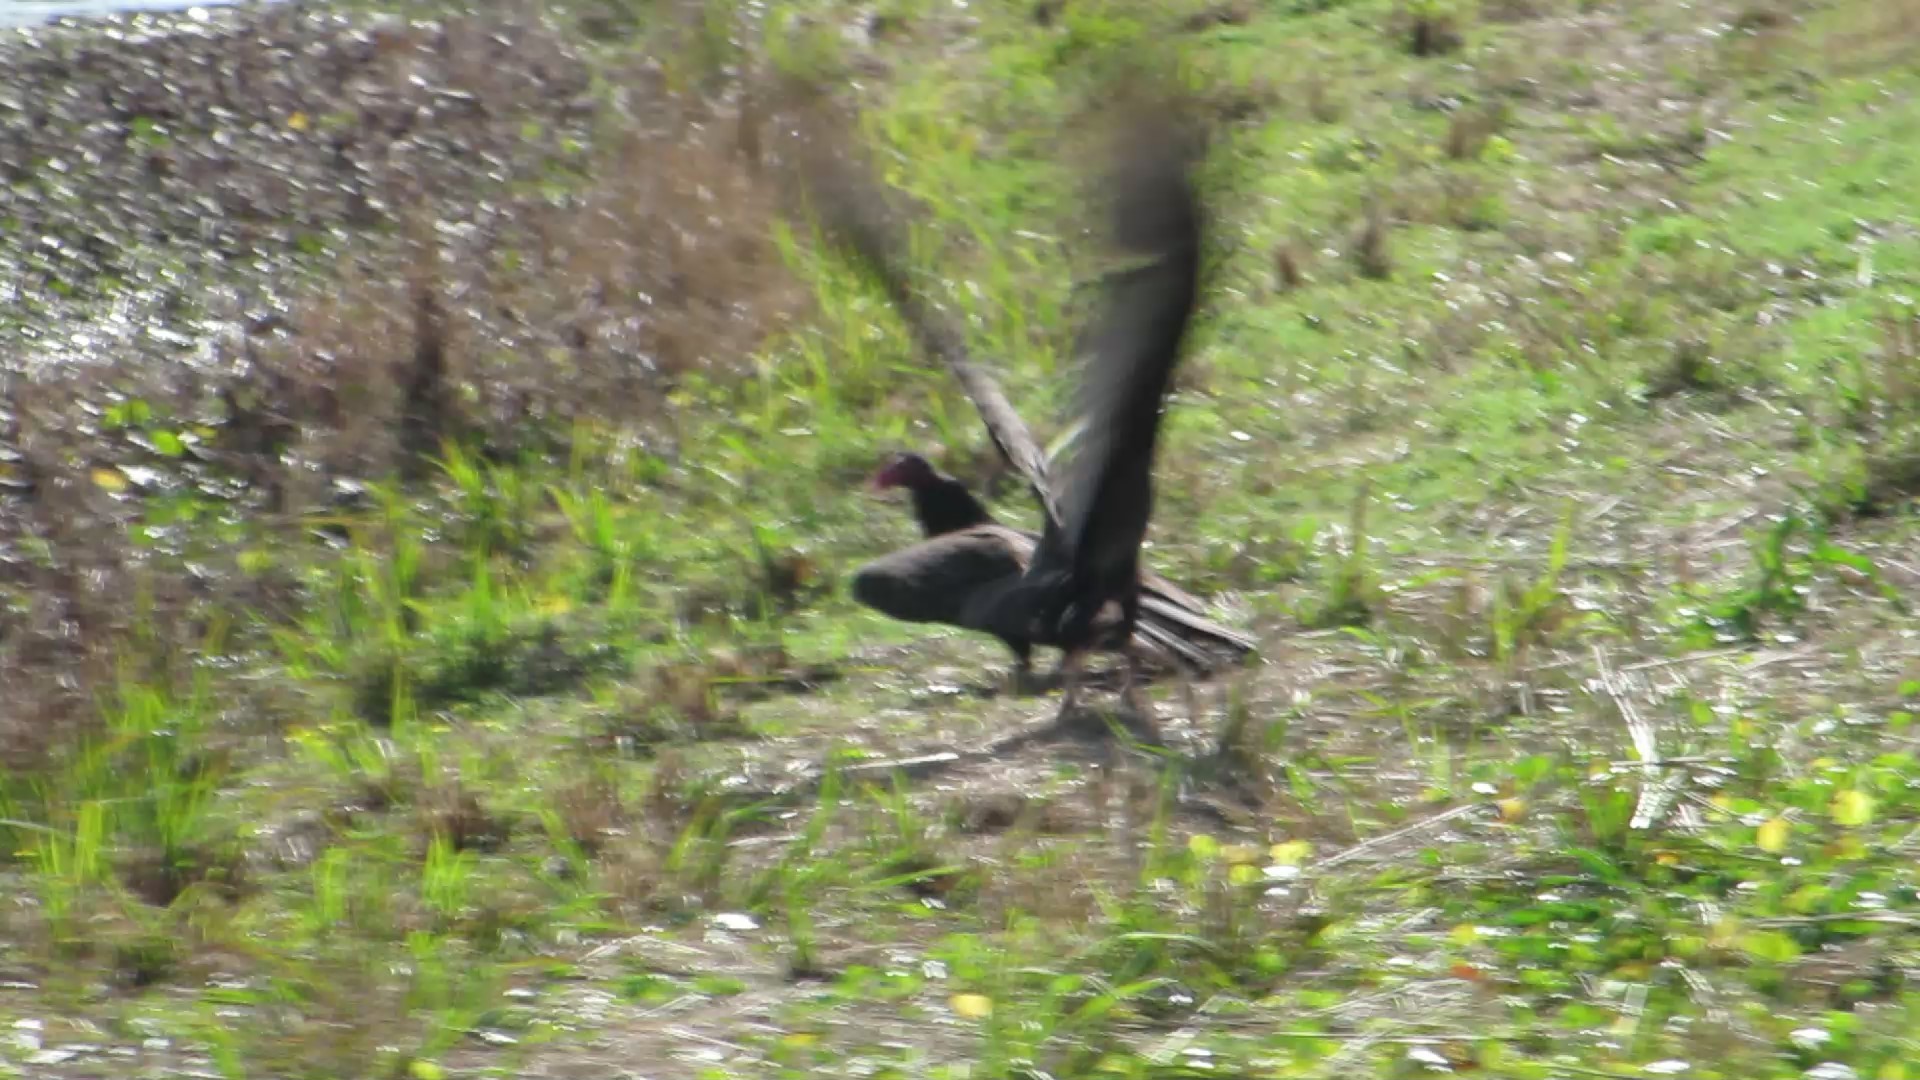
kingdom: Animalia
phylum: Chordata
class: Aves
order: Accipitriformes
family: Cathartidae
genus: Cathartes
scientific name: Cathartes aura
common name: Turkey vulture
